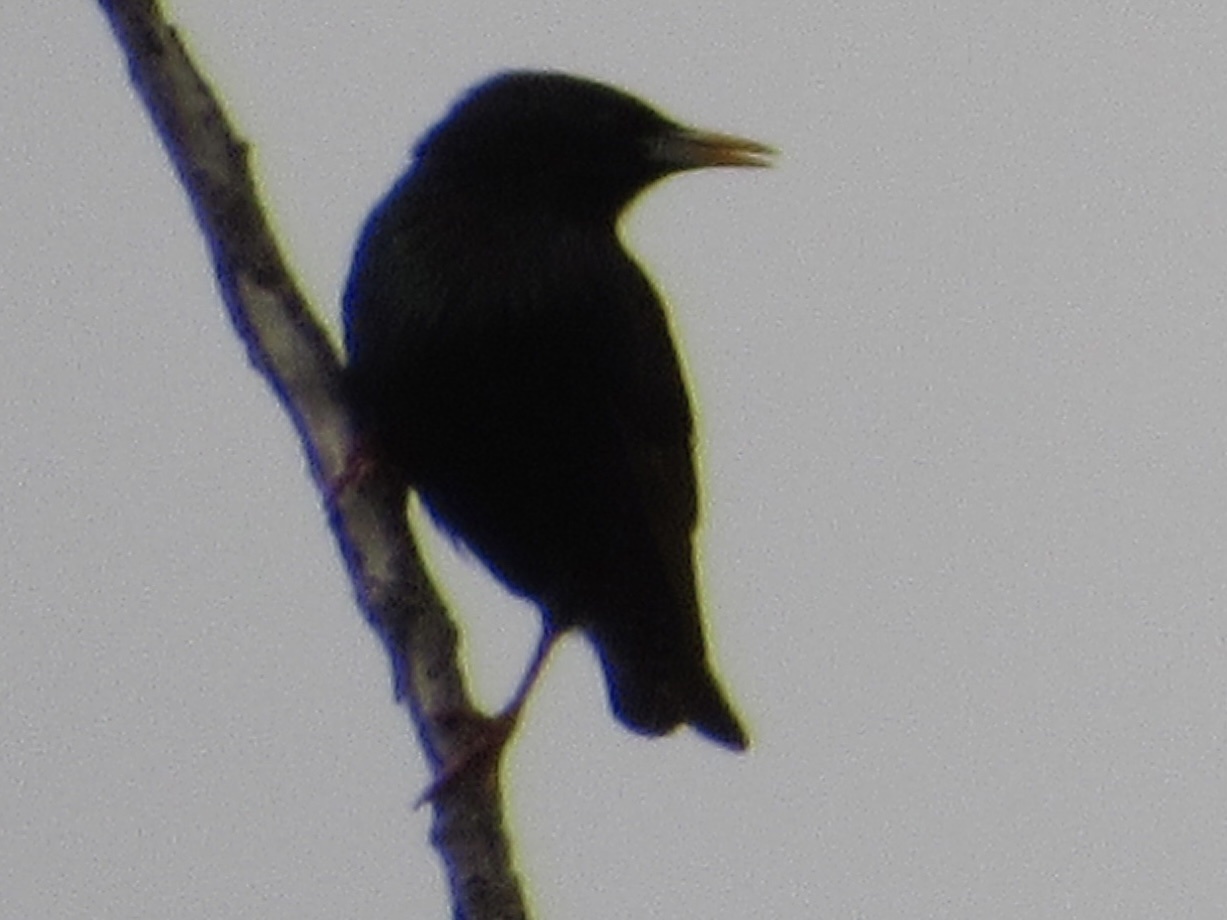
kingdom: Animalia
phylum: Chordata
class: Aves
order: Passeriformes
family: Sturnidae
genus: Sturnus
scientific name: Sturnus vulgaris
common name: Common starling
